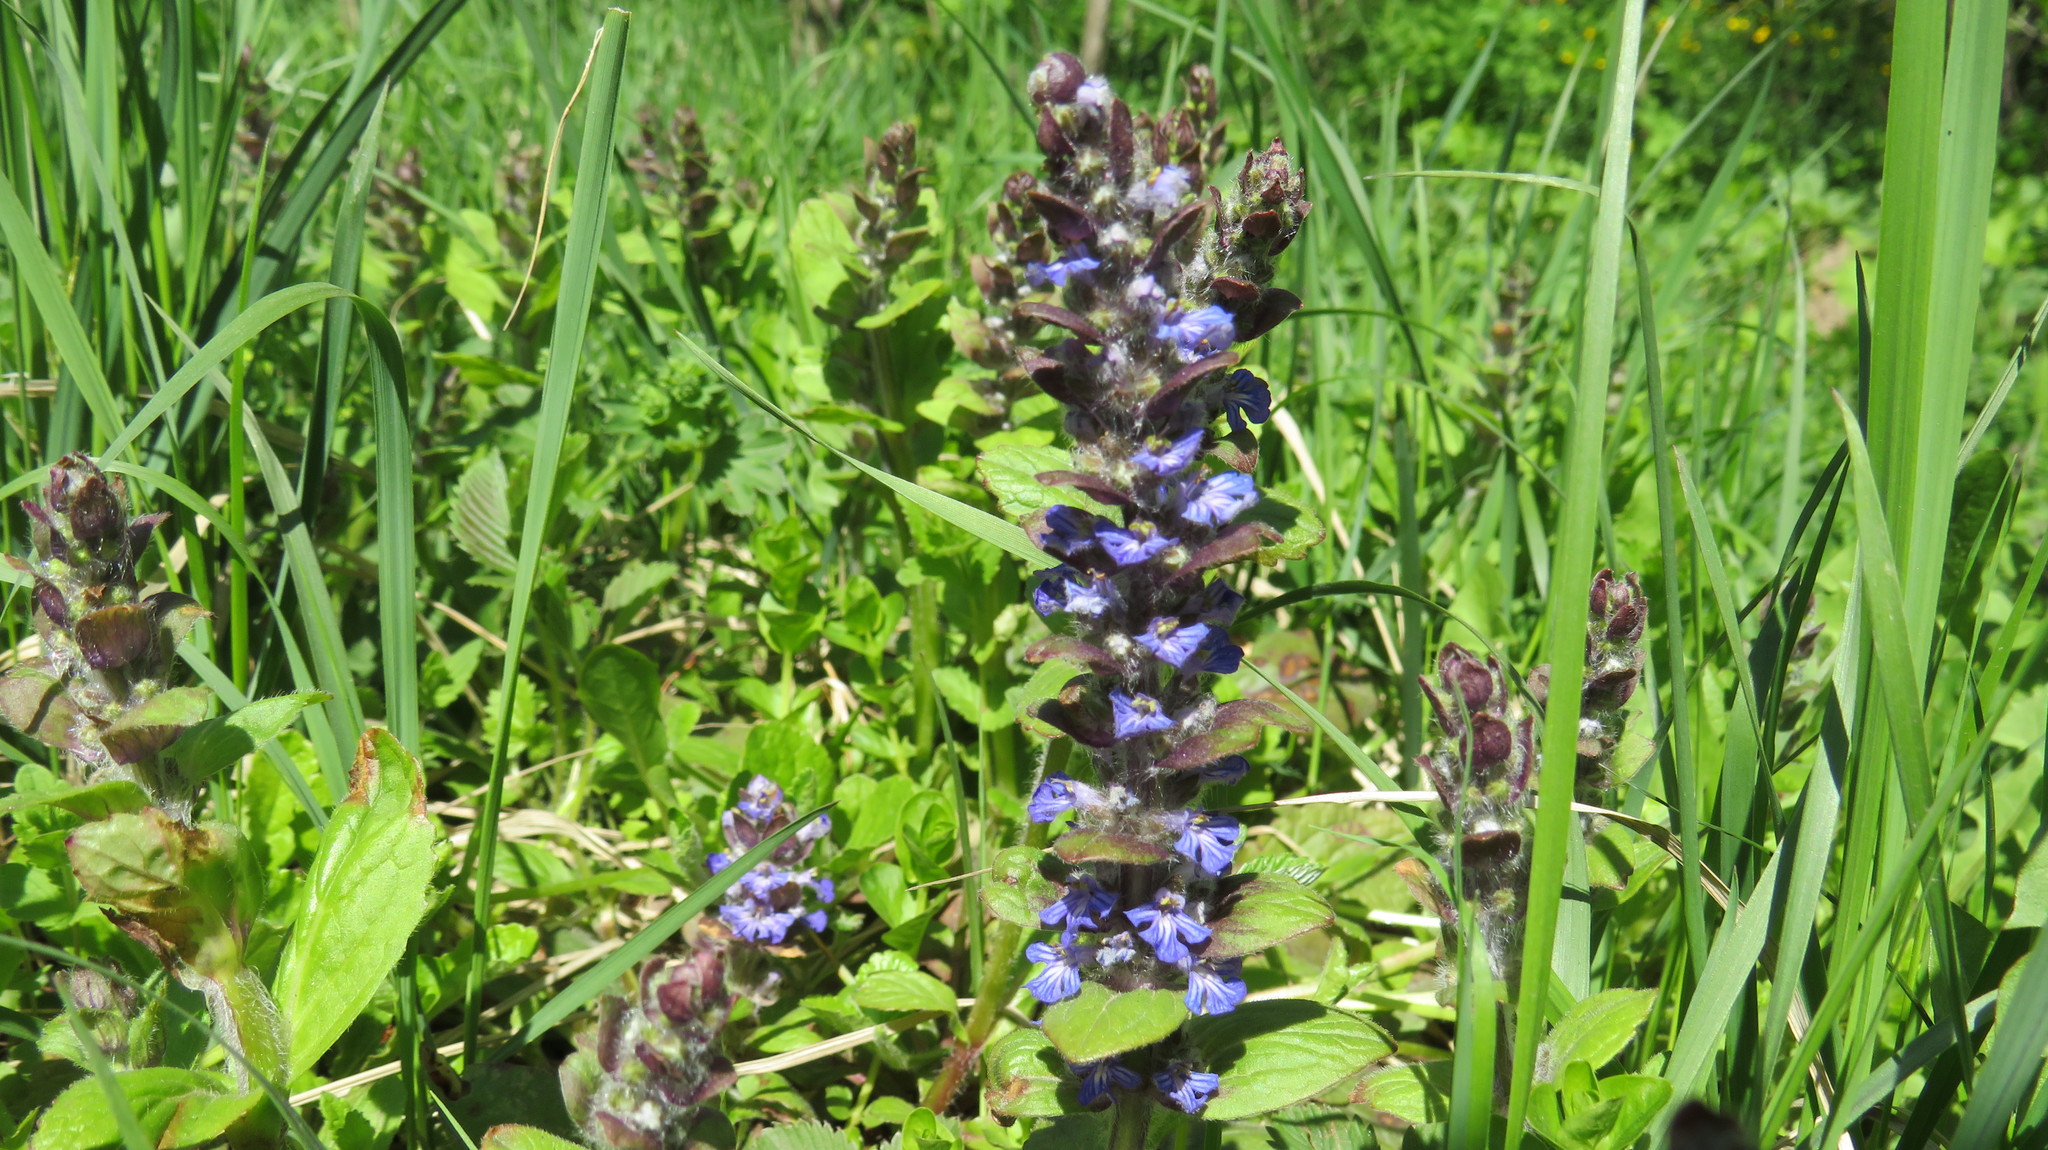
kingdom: Plantae
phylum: Tracheophyta
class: Magnoliopsida
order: Lamiales
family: Lamiaceae
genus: Ajuga
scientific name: Ajuga reptans
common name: Bugle
